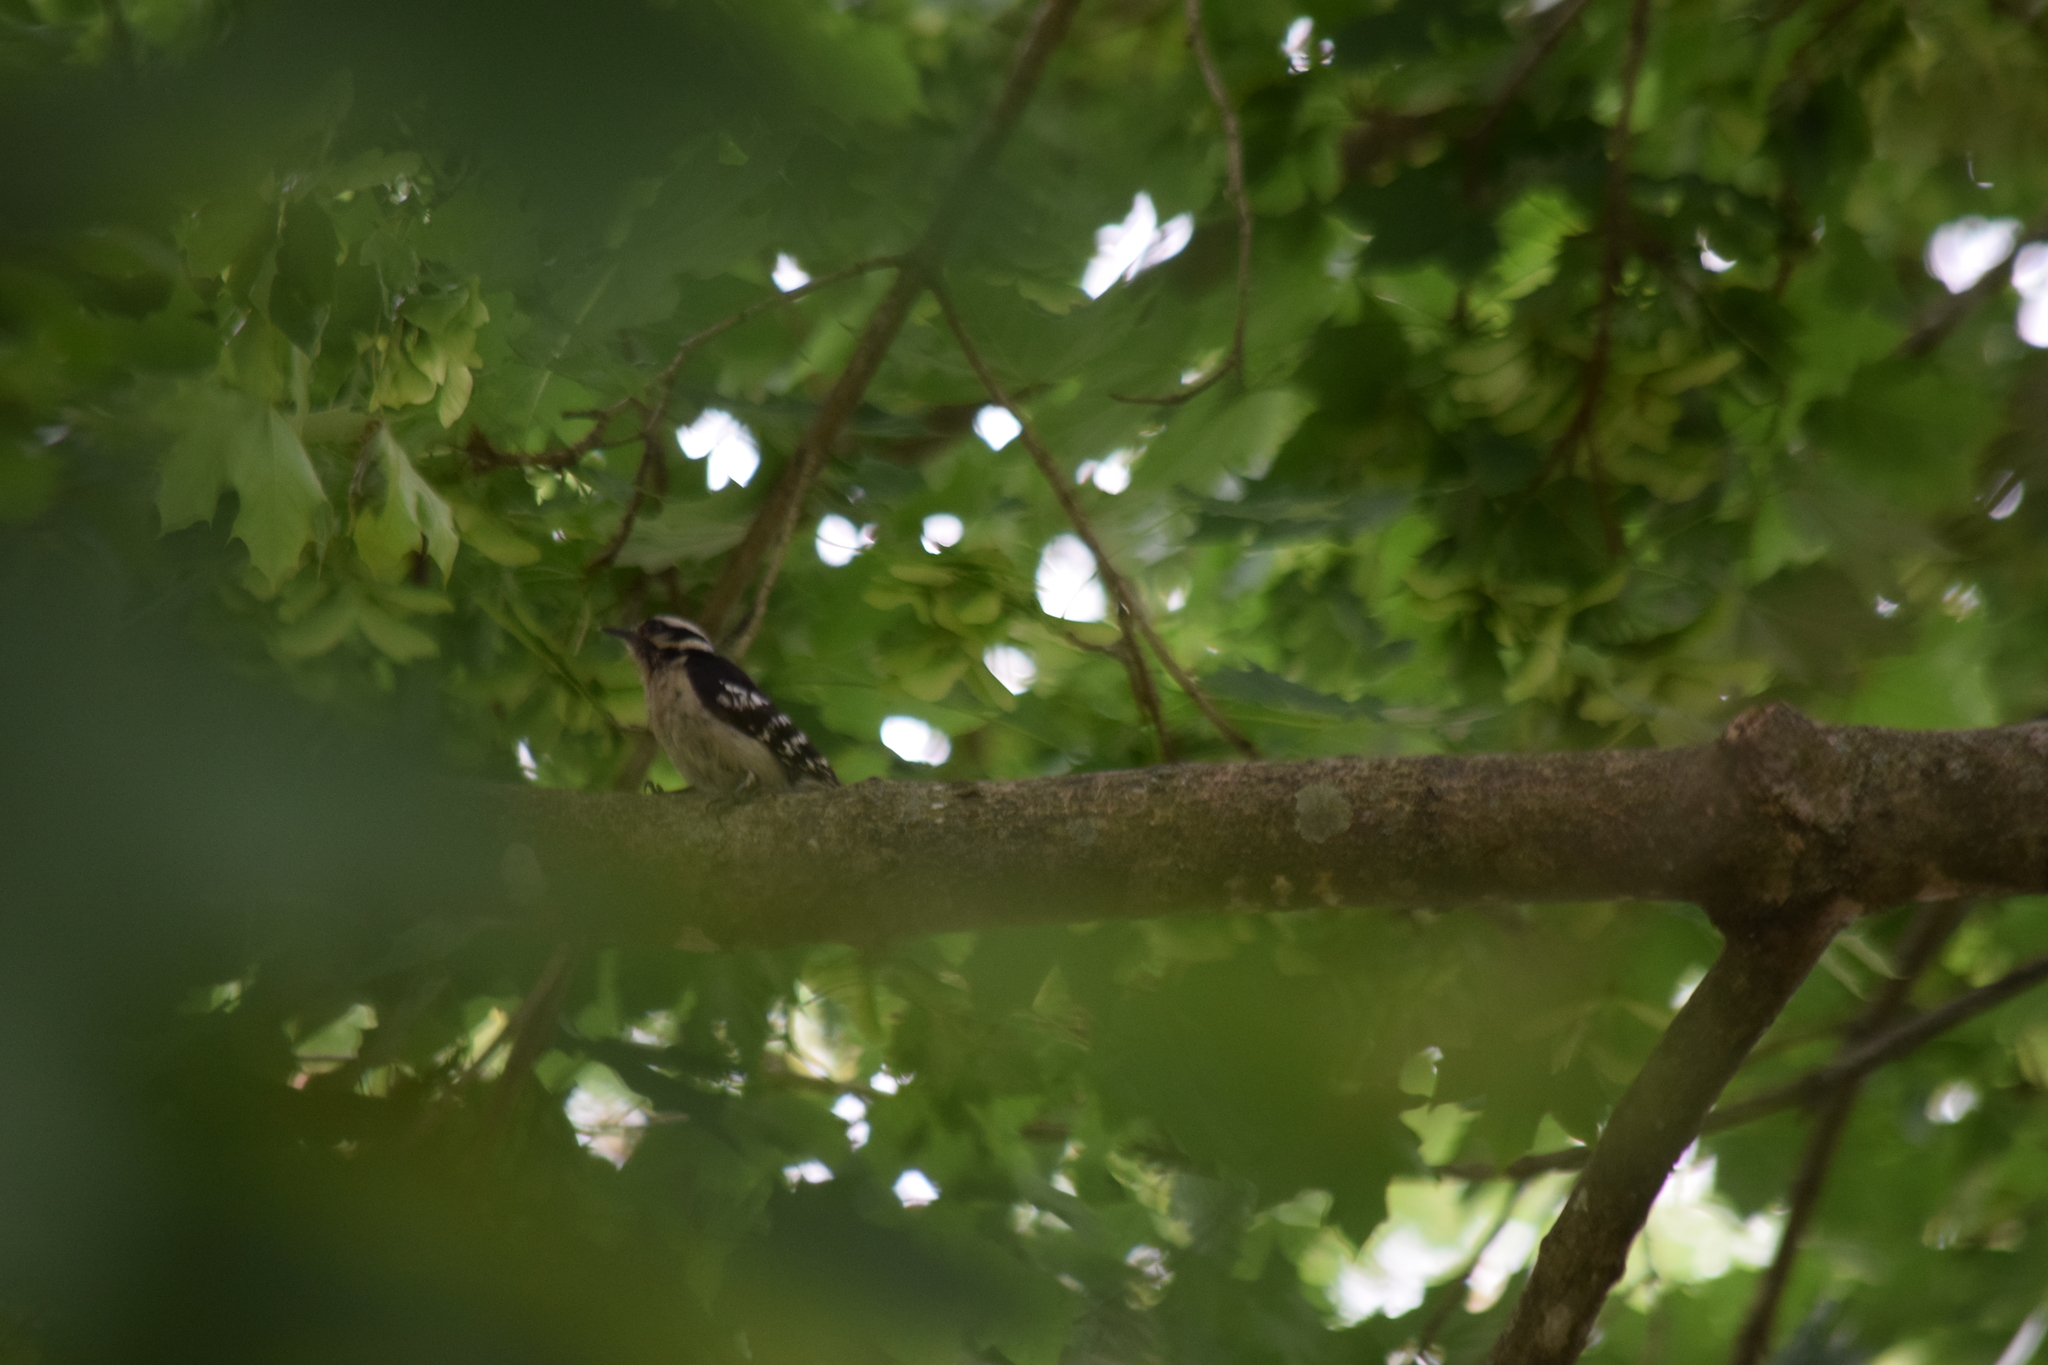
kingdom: Animalia
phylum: Chordata
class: Aves
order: Piciformes
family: Picidae
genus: Dryobates
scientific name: Dryobates pubescens
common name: Downy woodpecker
